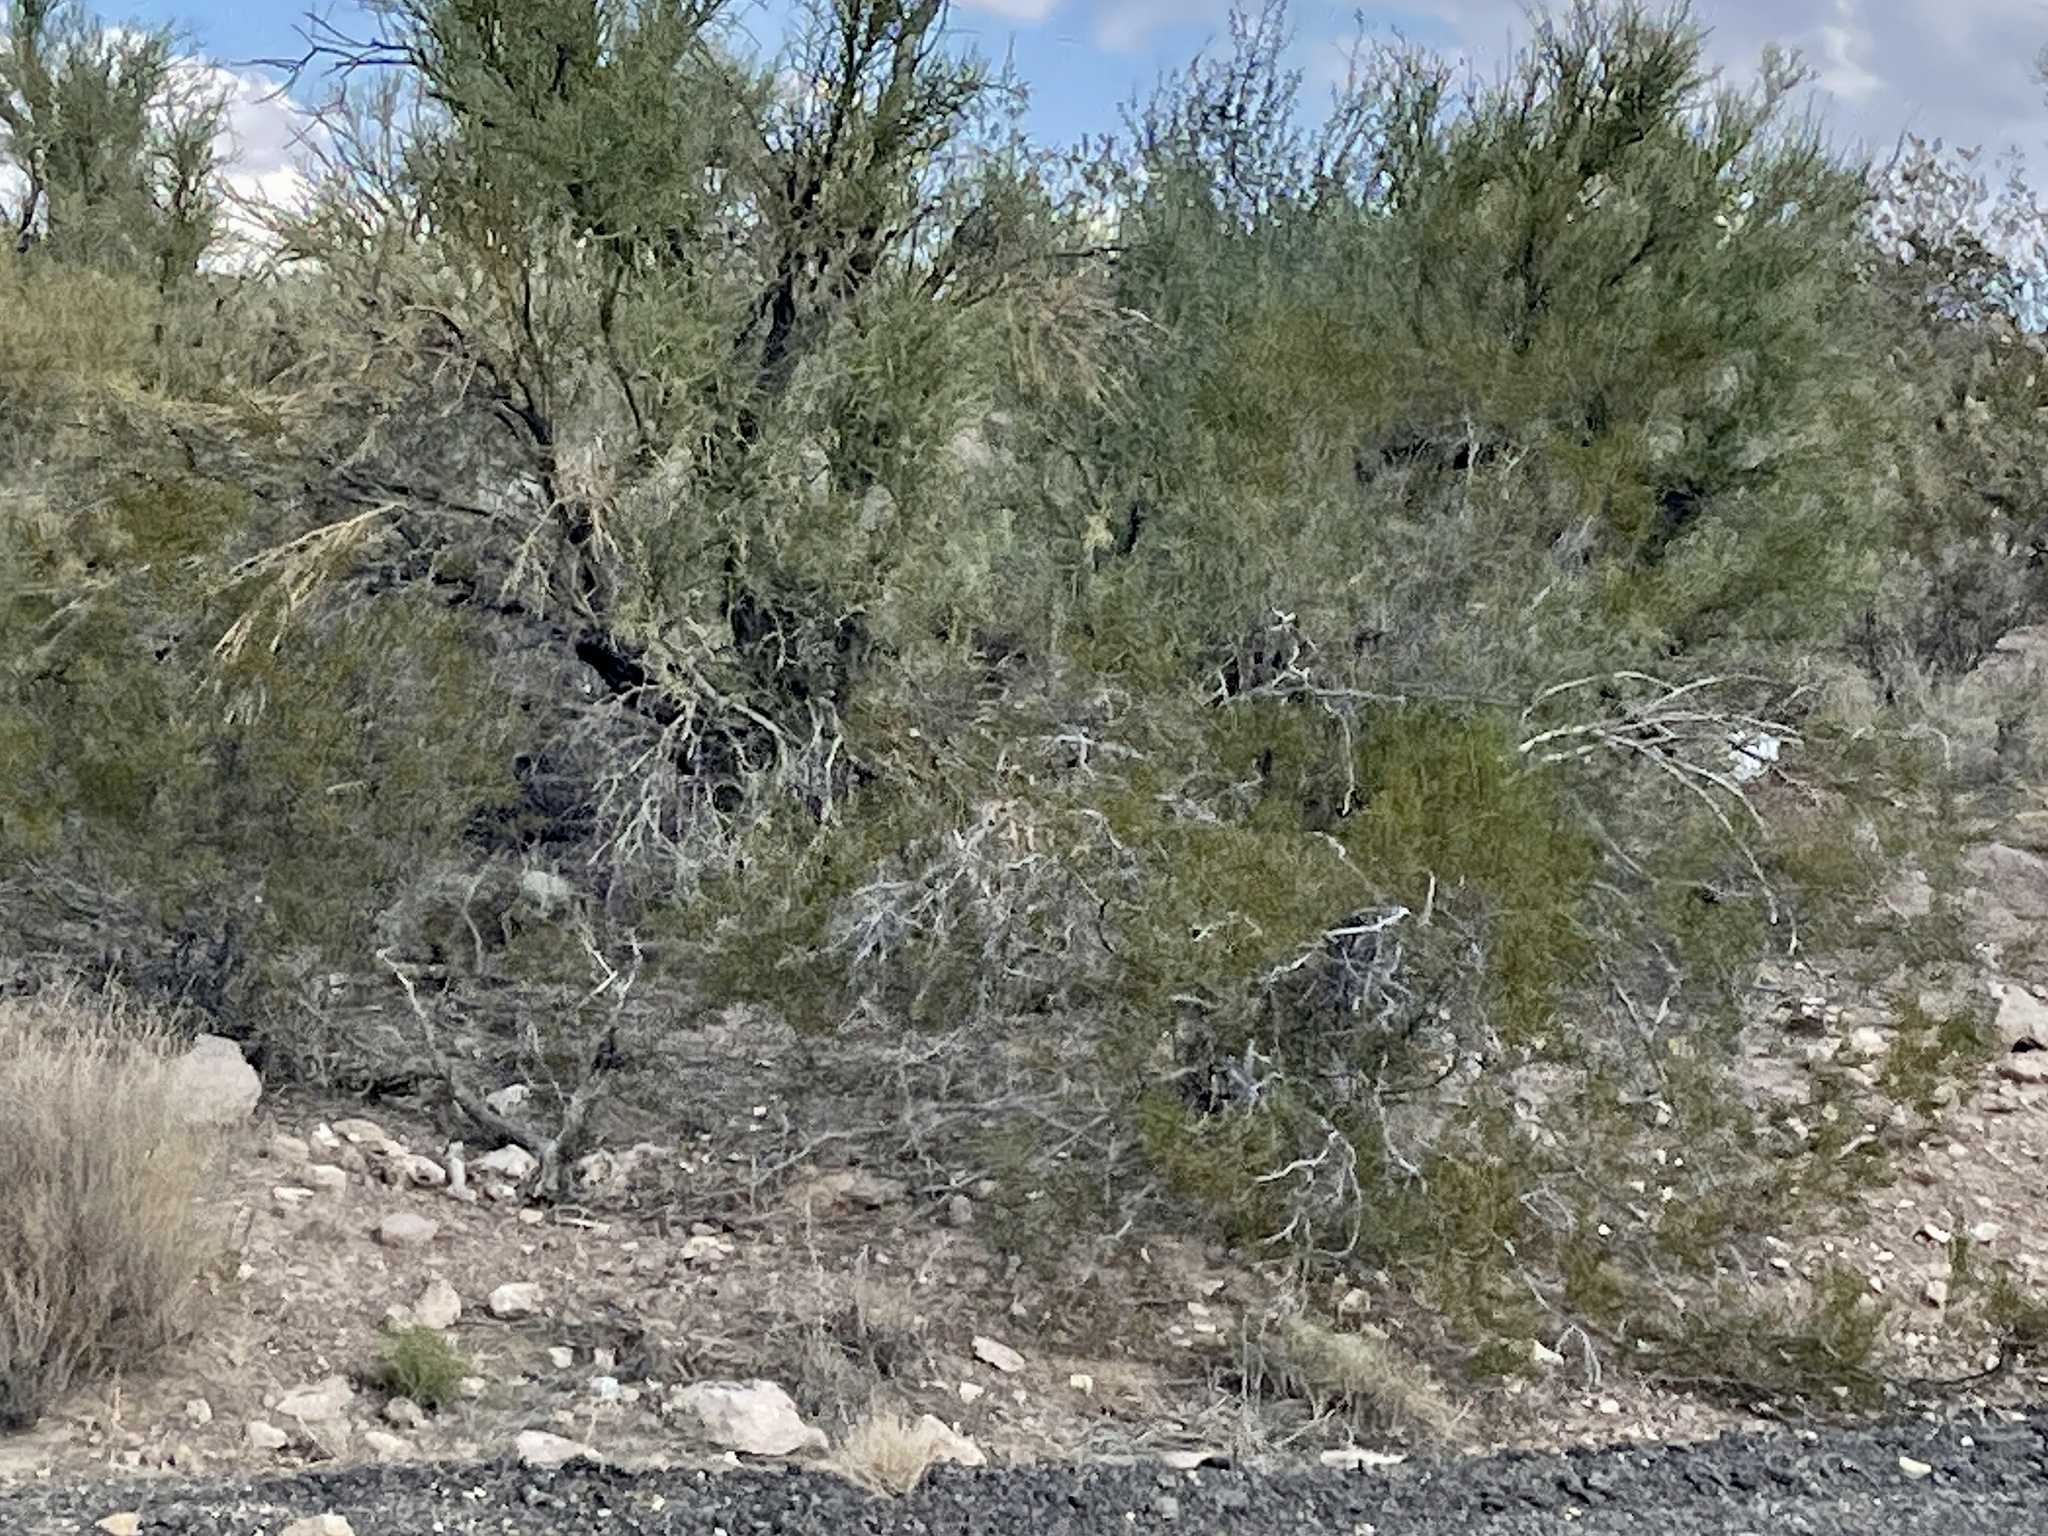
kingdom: Plantae
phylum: Tracheophyta
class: Magnoliopsida
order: Zygophyllales
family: Zygophyllaceae
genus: Larrea
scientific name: Larrea tridentata
